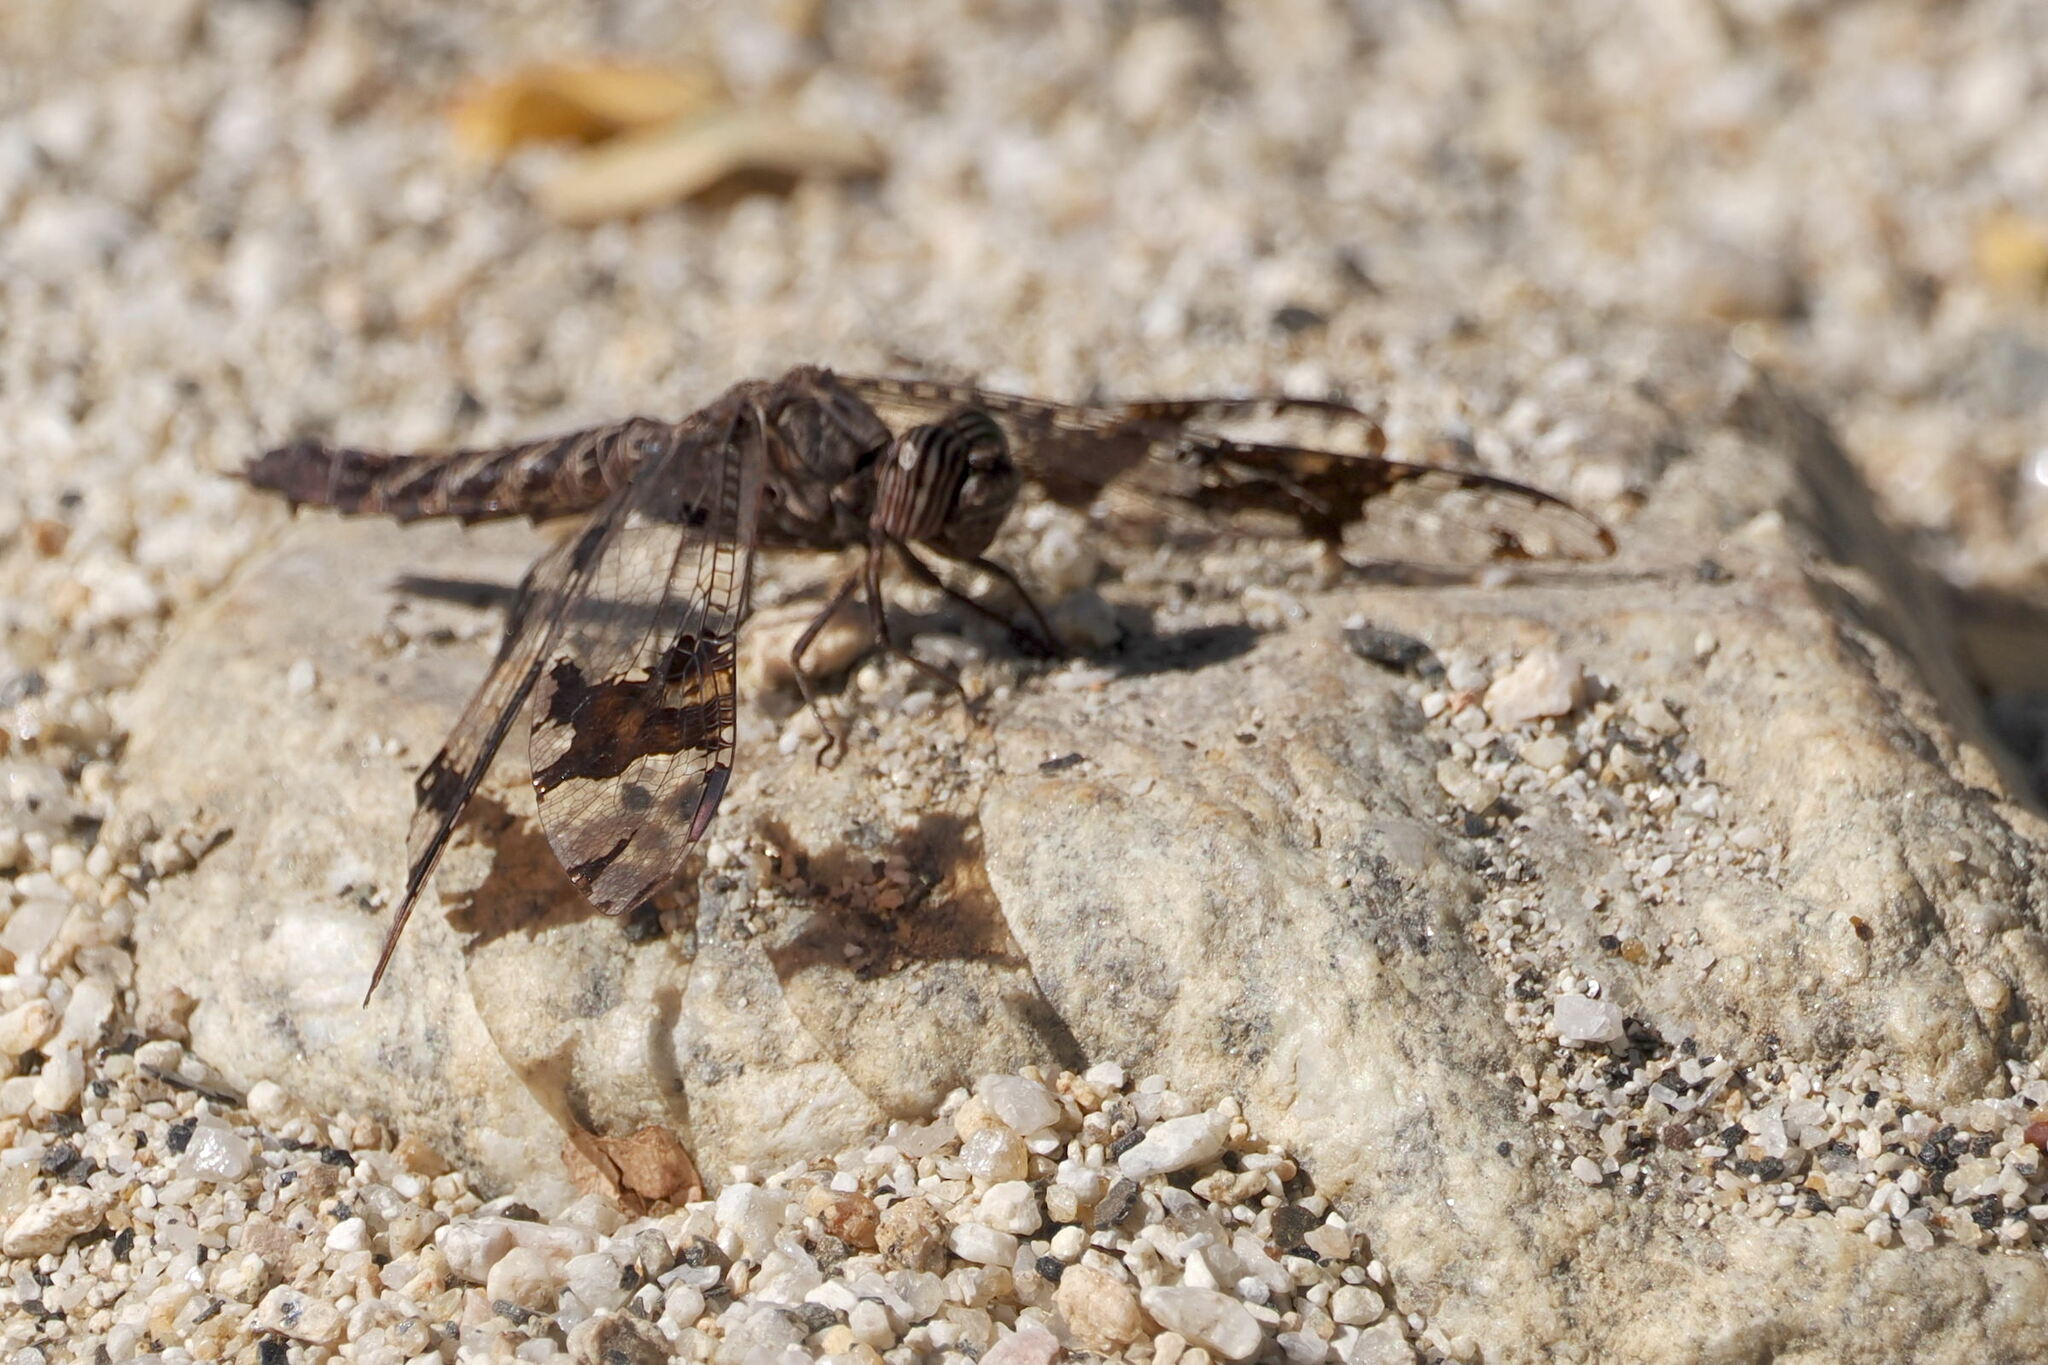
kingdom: Animalia
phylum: Arthropoda
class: Insecta
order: Odonata
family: Libellulidae
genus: Pseudoleon
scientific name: Pseudoleon superbus
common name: Filigree skimmer
